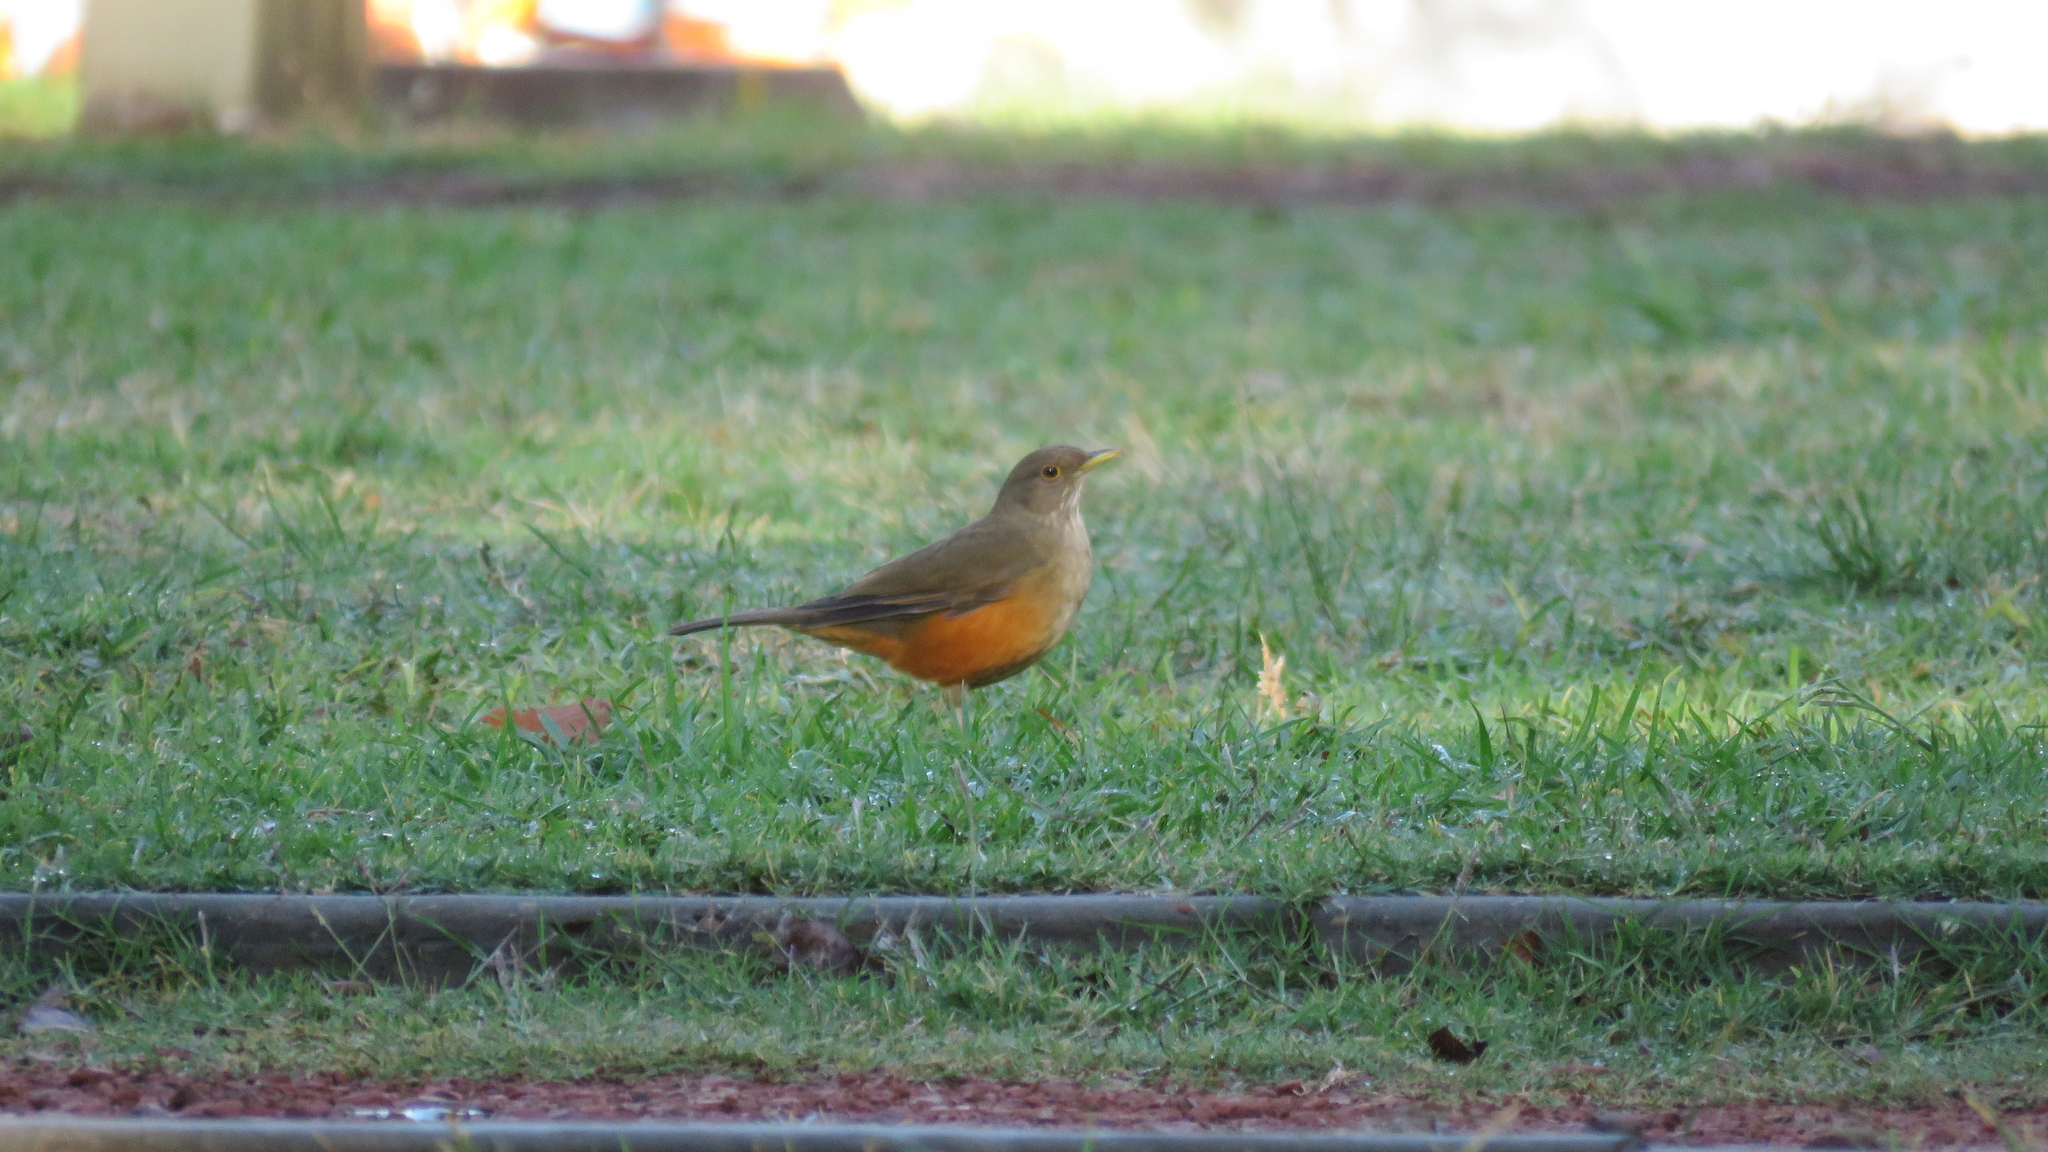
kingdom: Animalia
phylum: Chordata
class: Aves
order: Passeriformes
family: Turdidae
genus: Turdus
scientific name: Turdus rufiventris
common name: Rufous-bellied thrush
